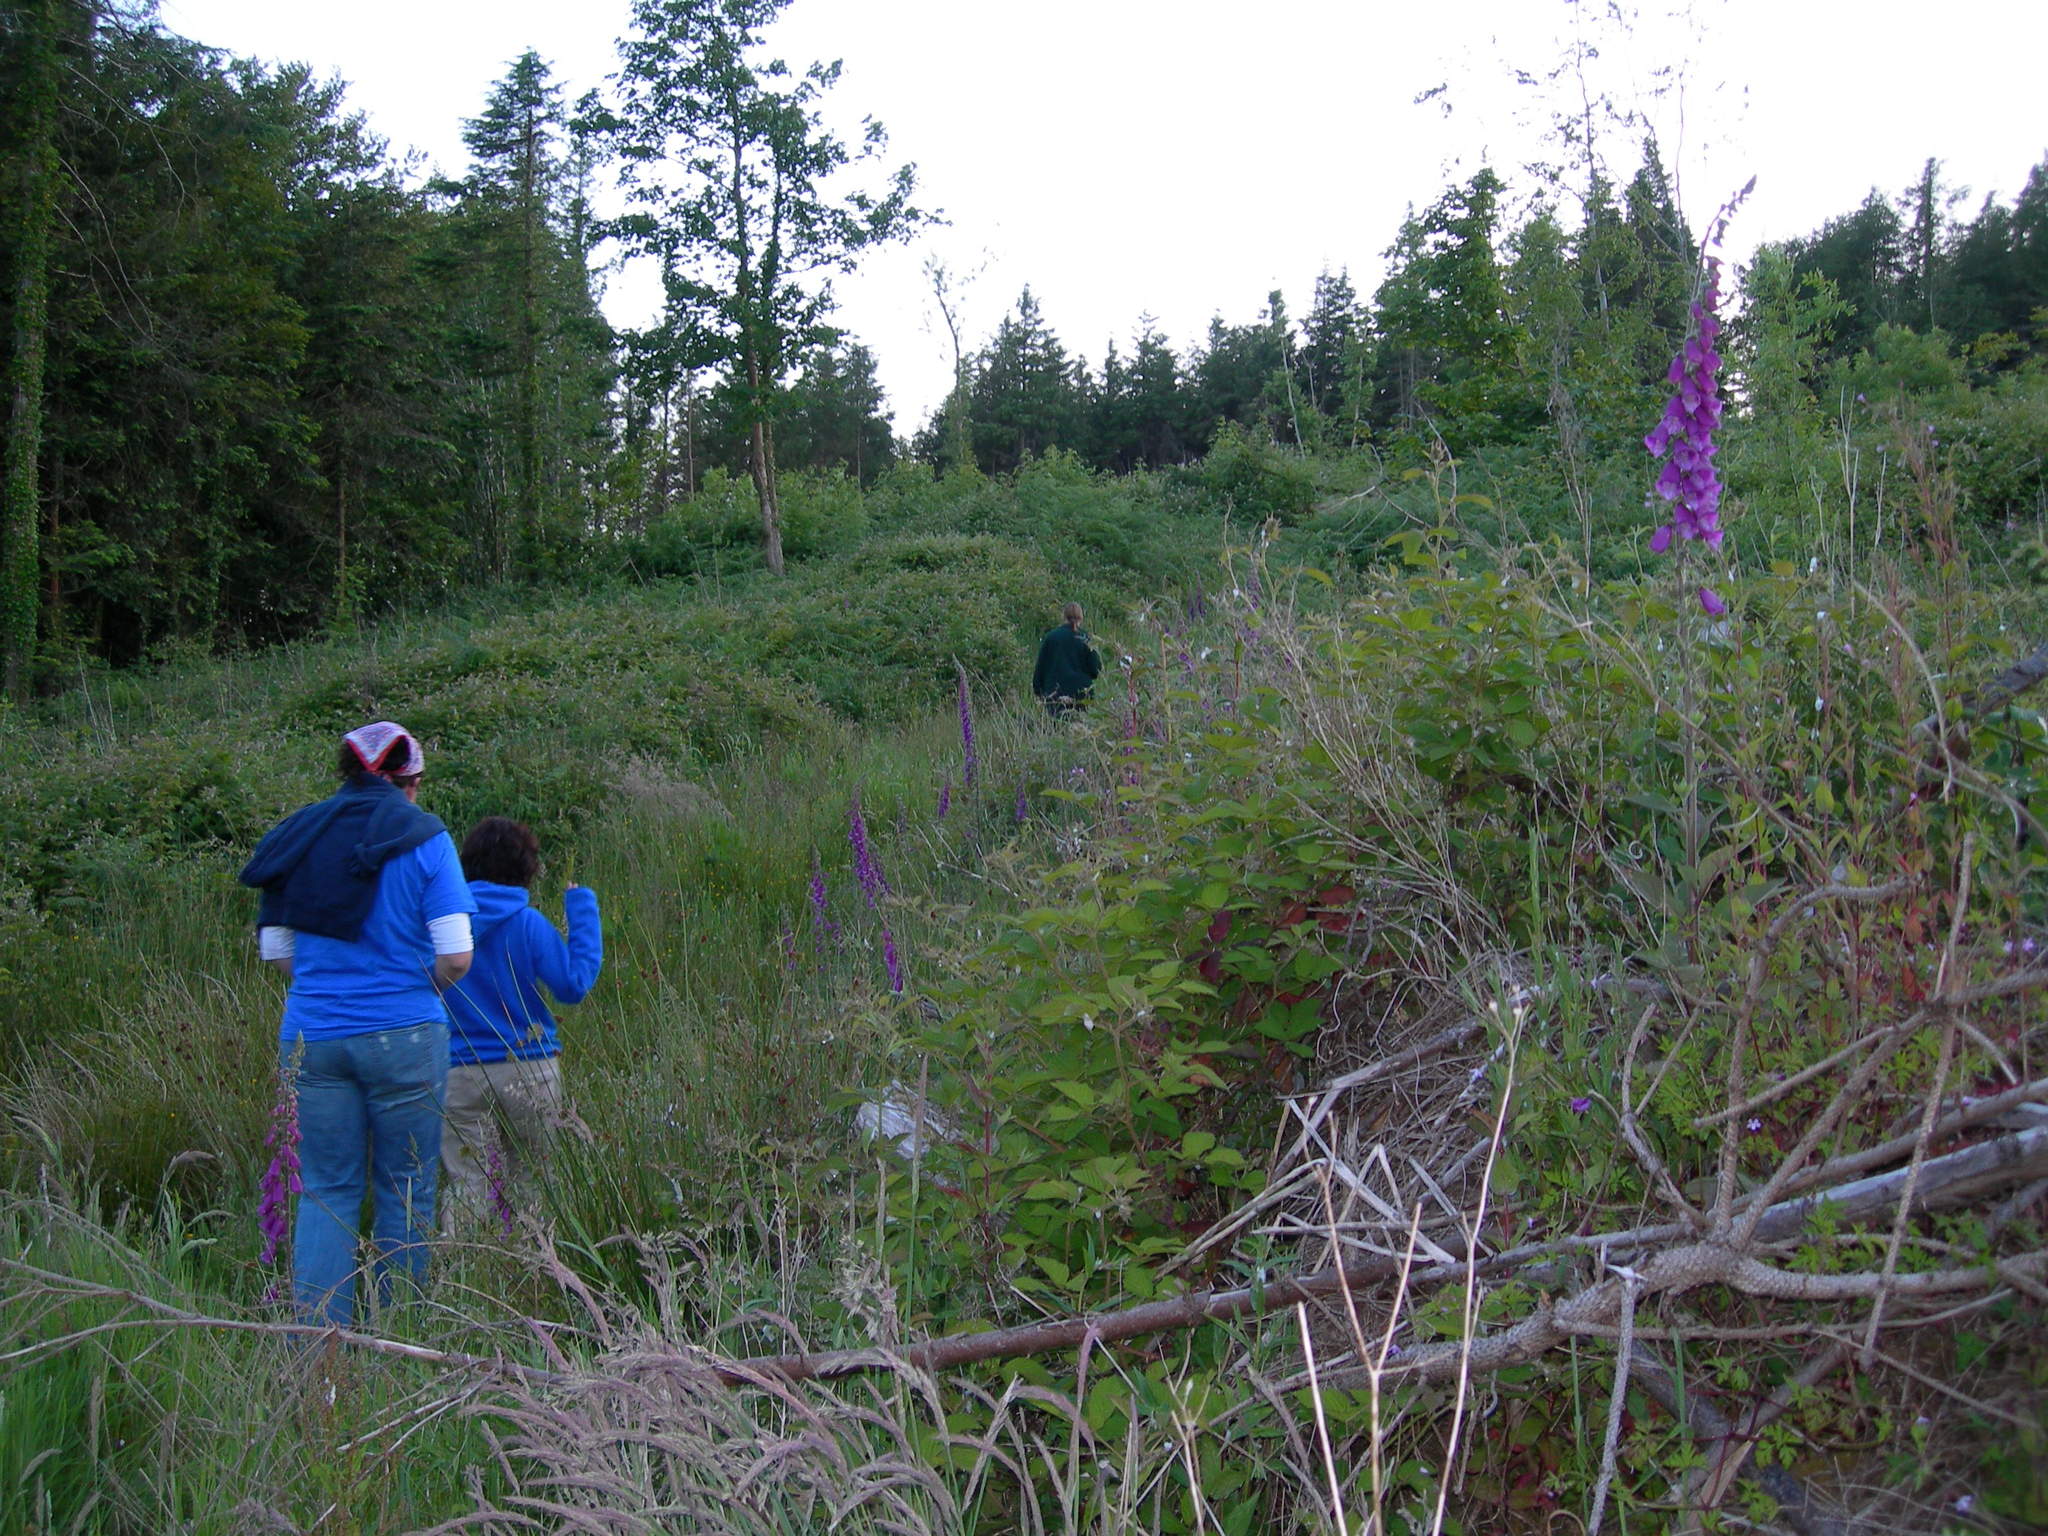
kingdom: Plantae
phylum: Tracheophyta
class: Magnoliopsida
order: Lamiales
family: Plantaginaceae
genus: Digitalis
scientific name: Digitalis purpurea
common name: Foxglove
